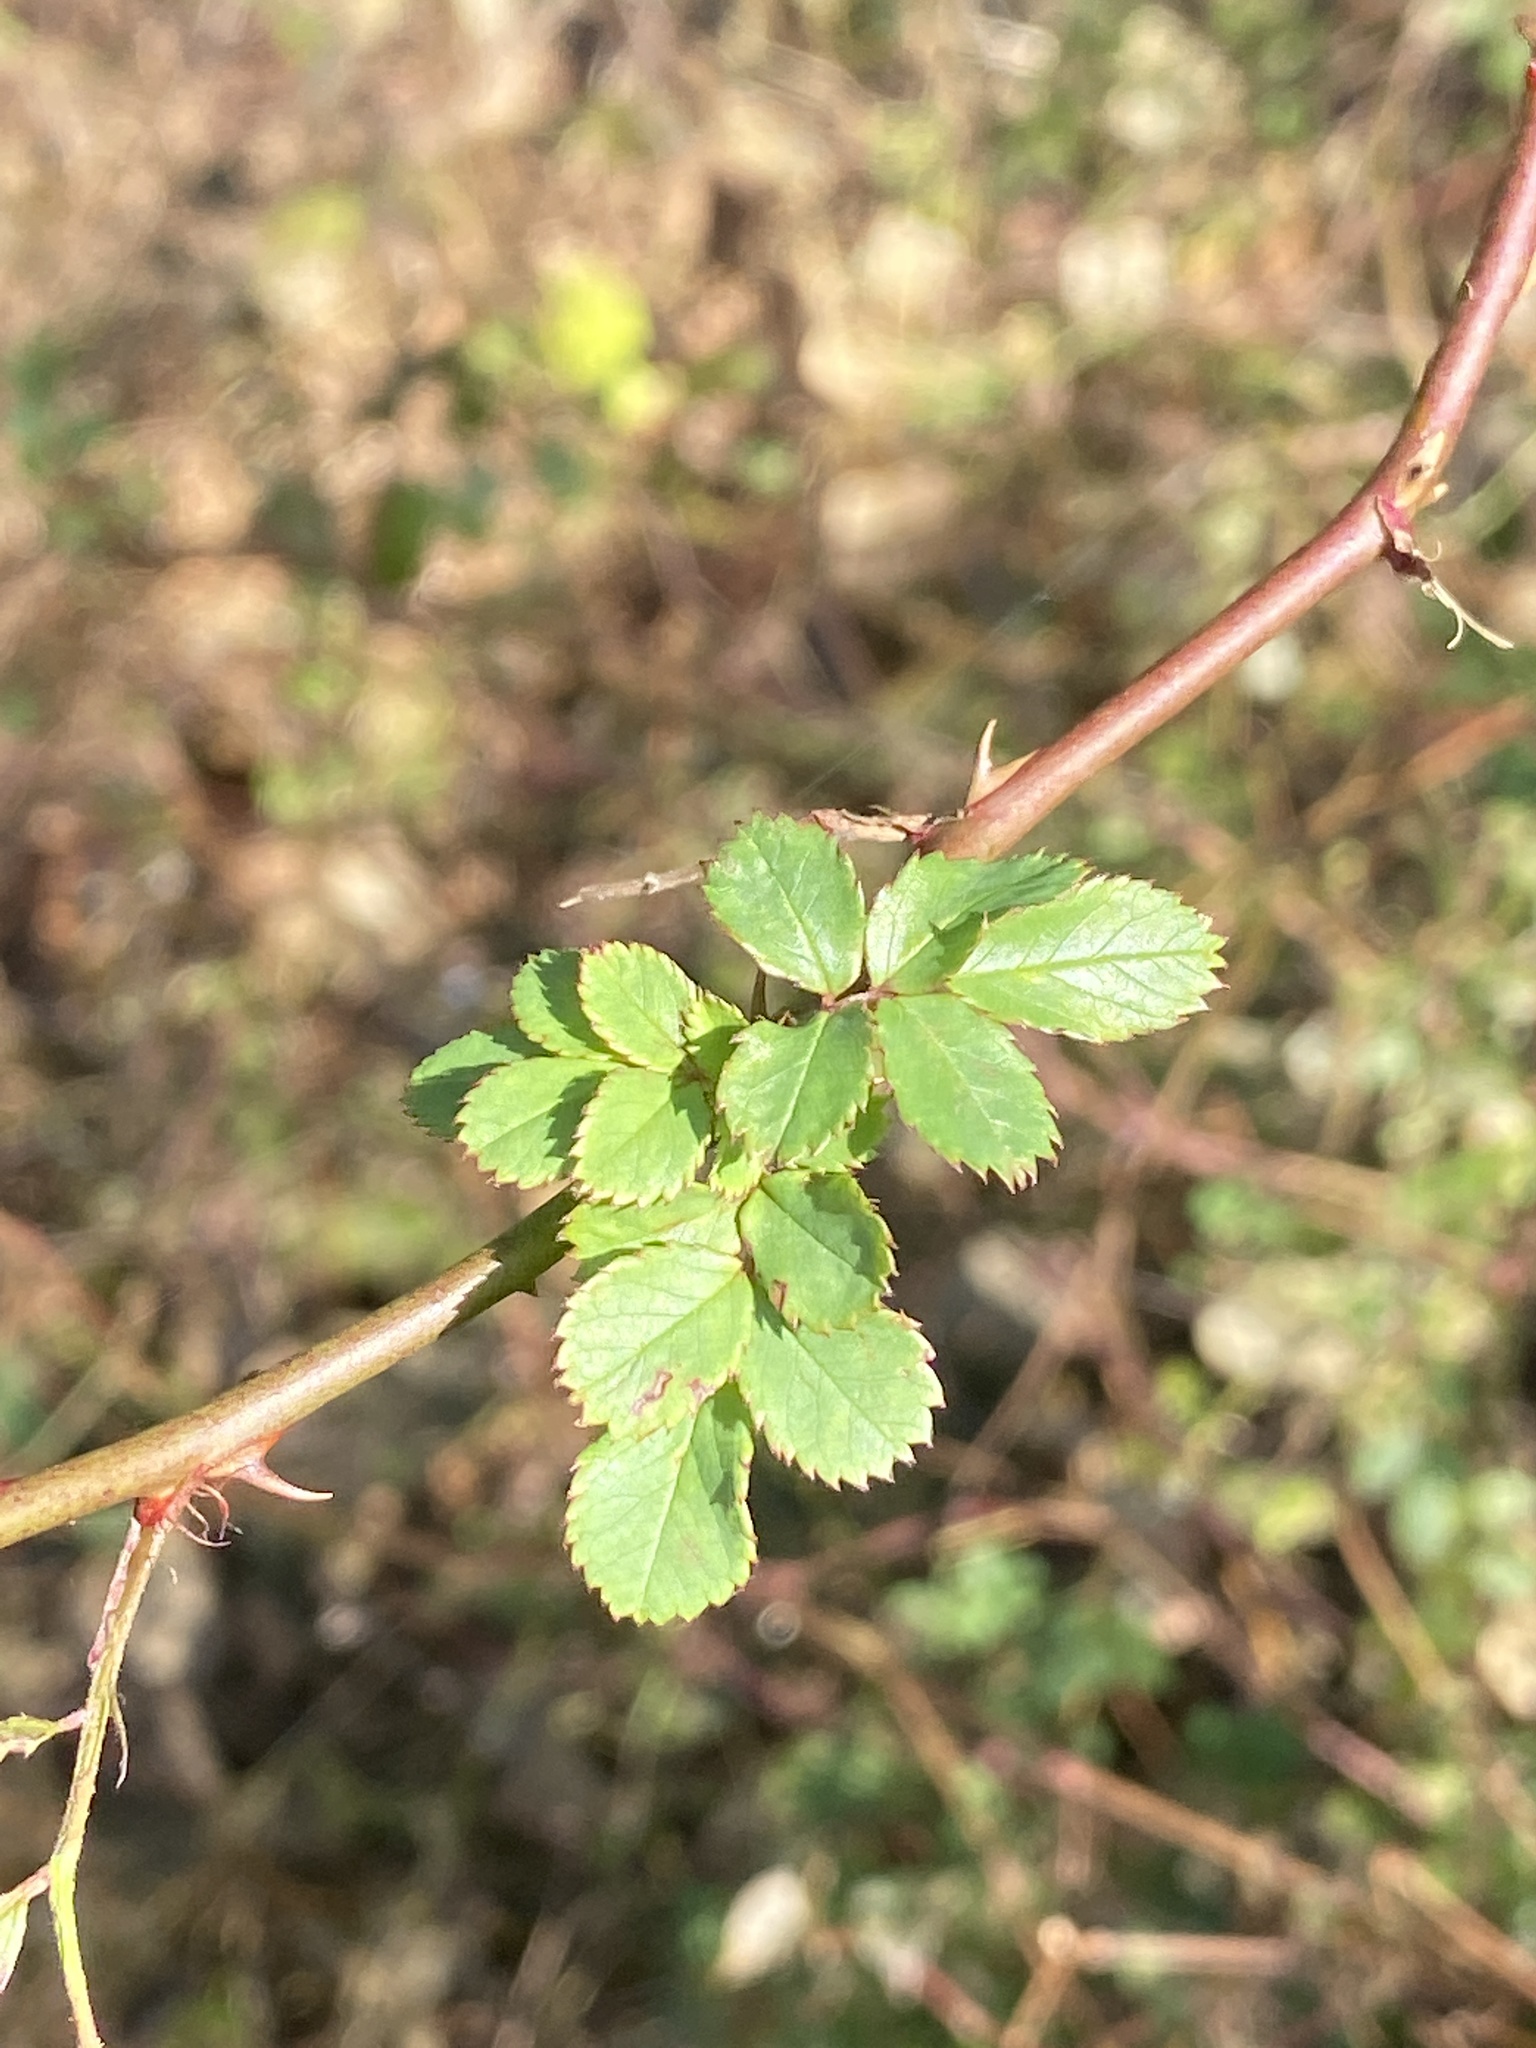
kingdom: Plantae
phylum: Tracheophyta
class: Magnoliopsida
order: Rosales
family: Rosaceae
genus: Rosa
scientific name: Rosa multiflora
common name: Multiflora rose
